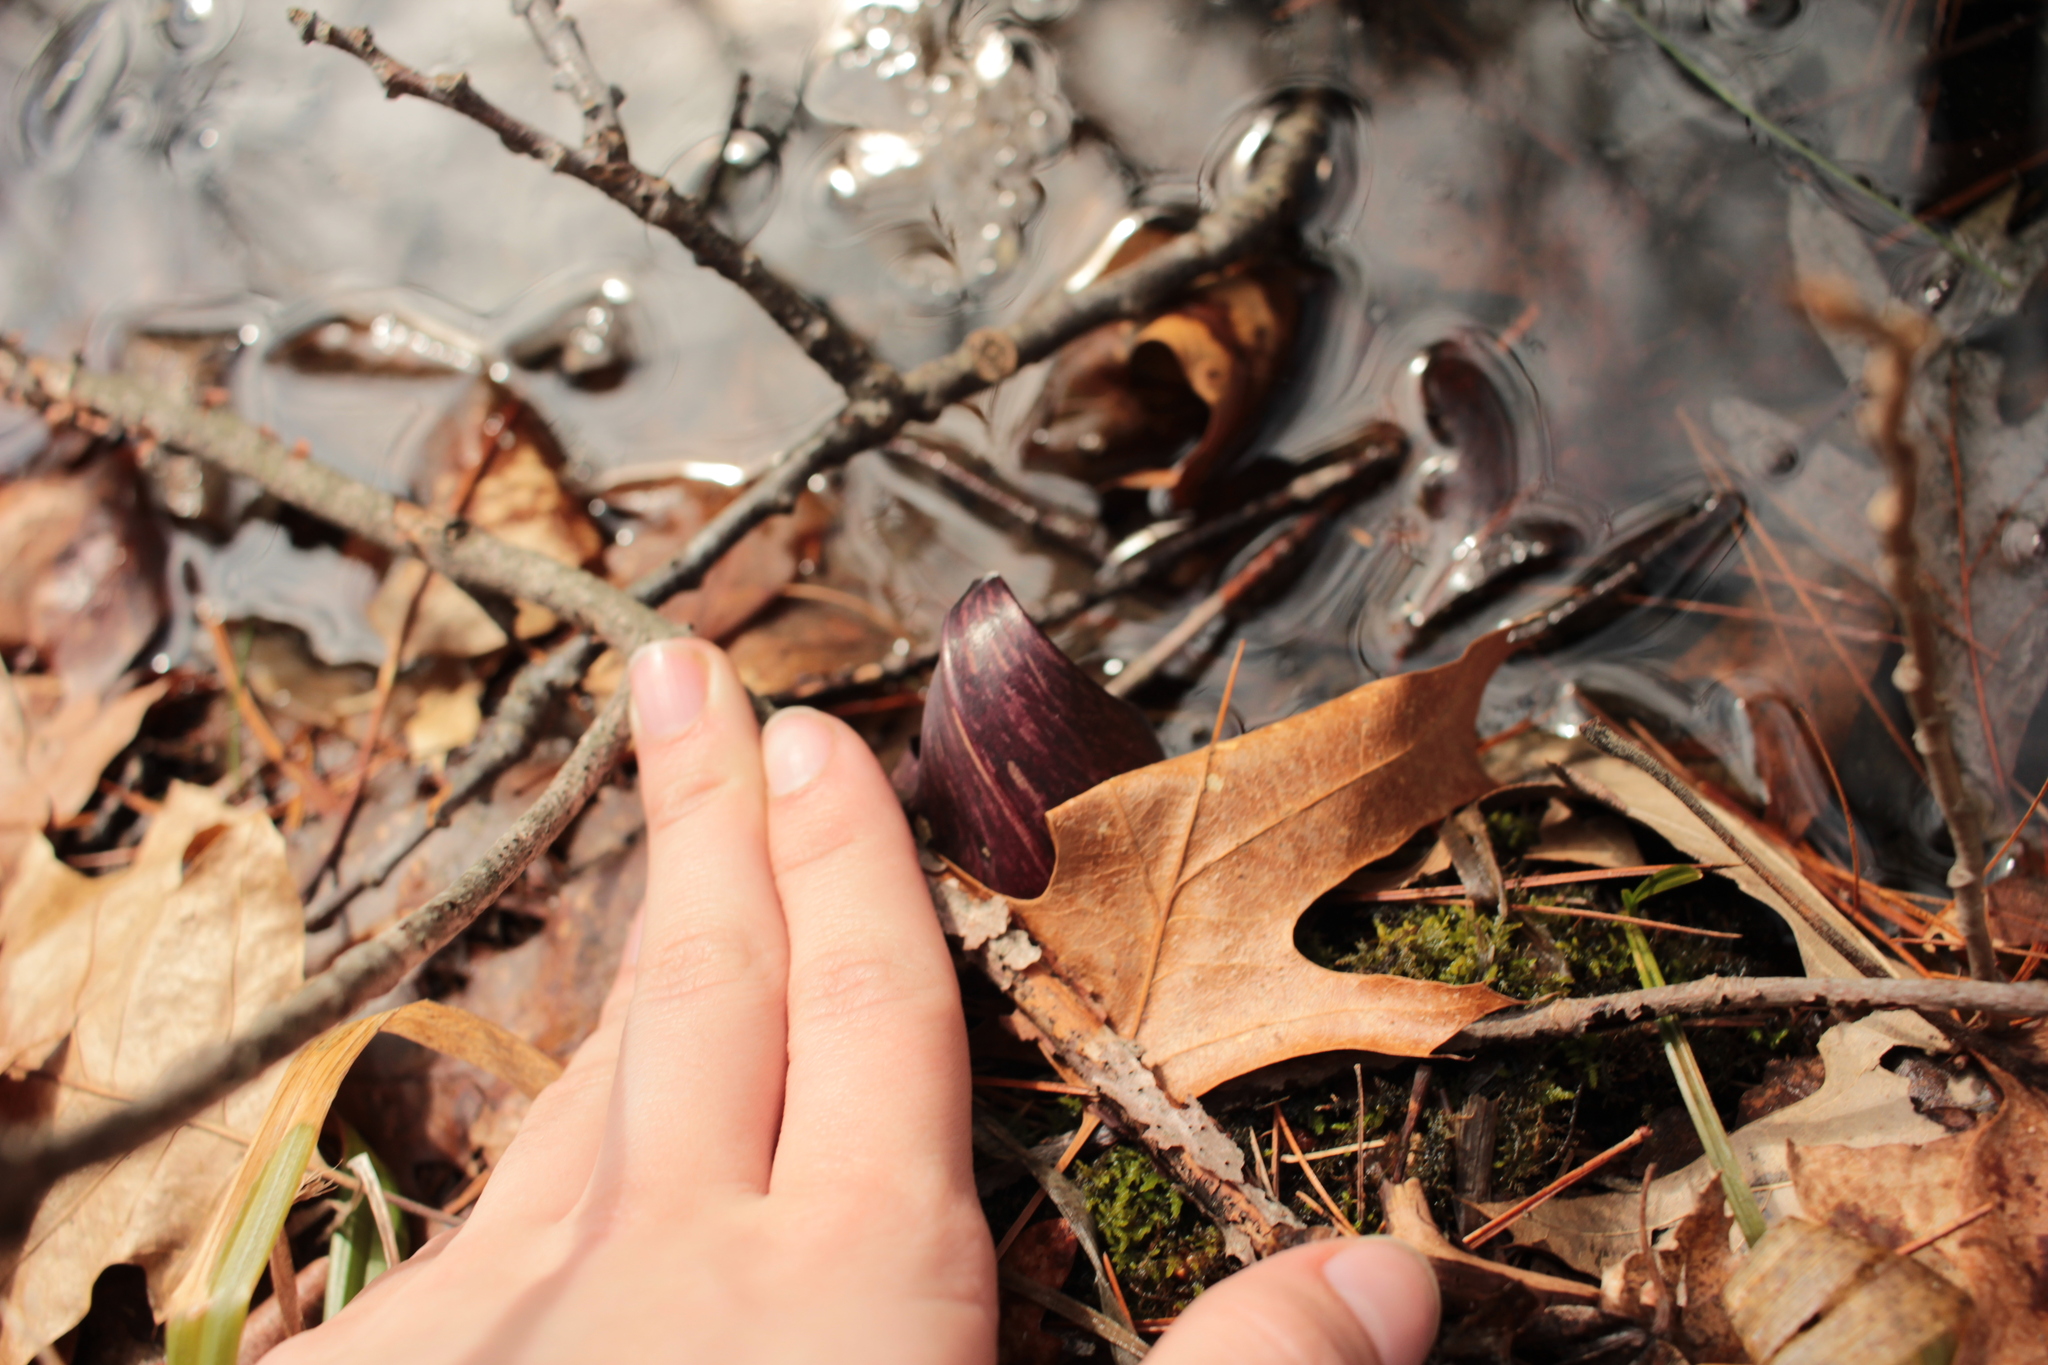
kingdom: Plantae
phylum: Tracheophyta
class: Liliopsida
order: Alismatales
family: Araceae
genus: Symplocarpus
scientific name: Symplocarpus foetidus
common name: Eastern skunk cabbage
